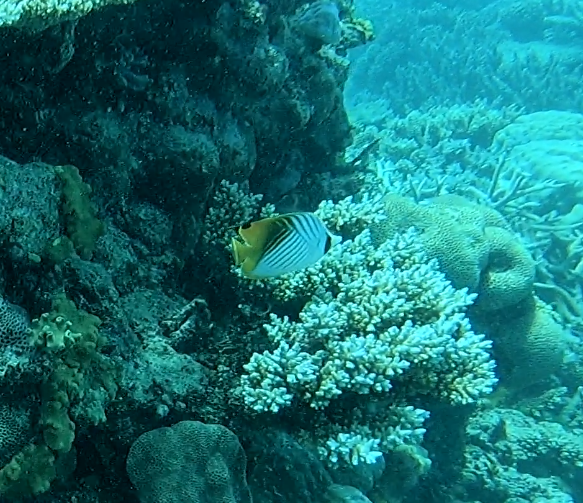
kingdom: Animalia
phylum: Chordata
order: Perciformes
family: Chaetodontidae
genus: Chaetodon
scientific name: Chaetodon auriga
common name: Threadfin butterflyfish
